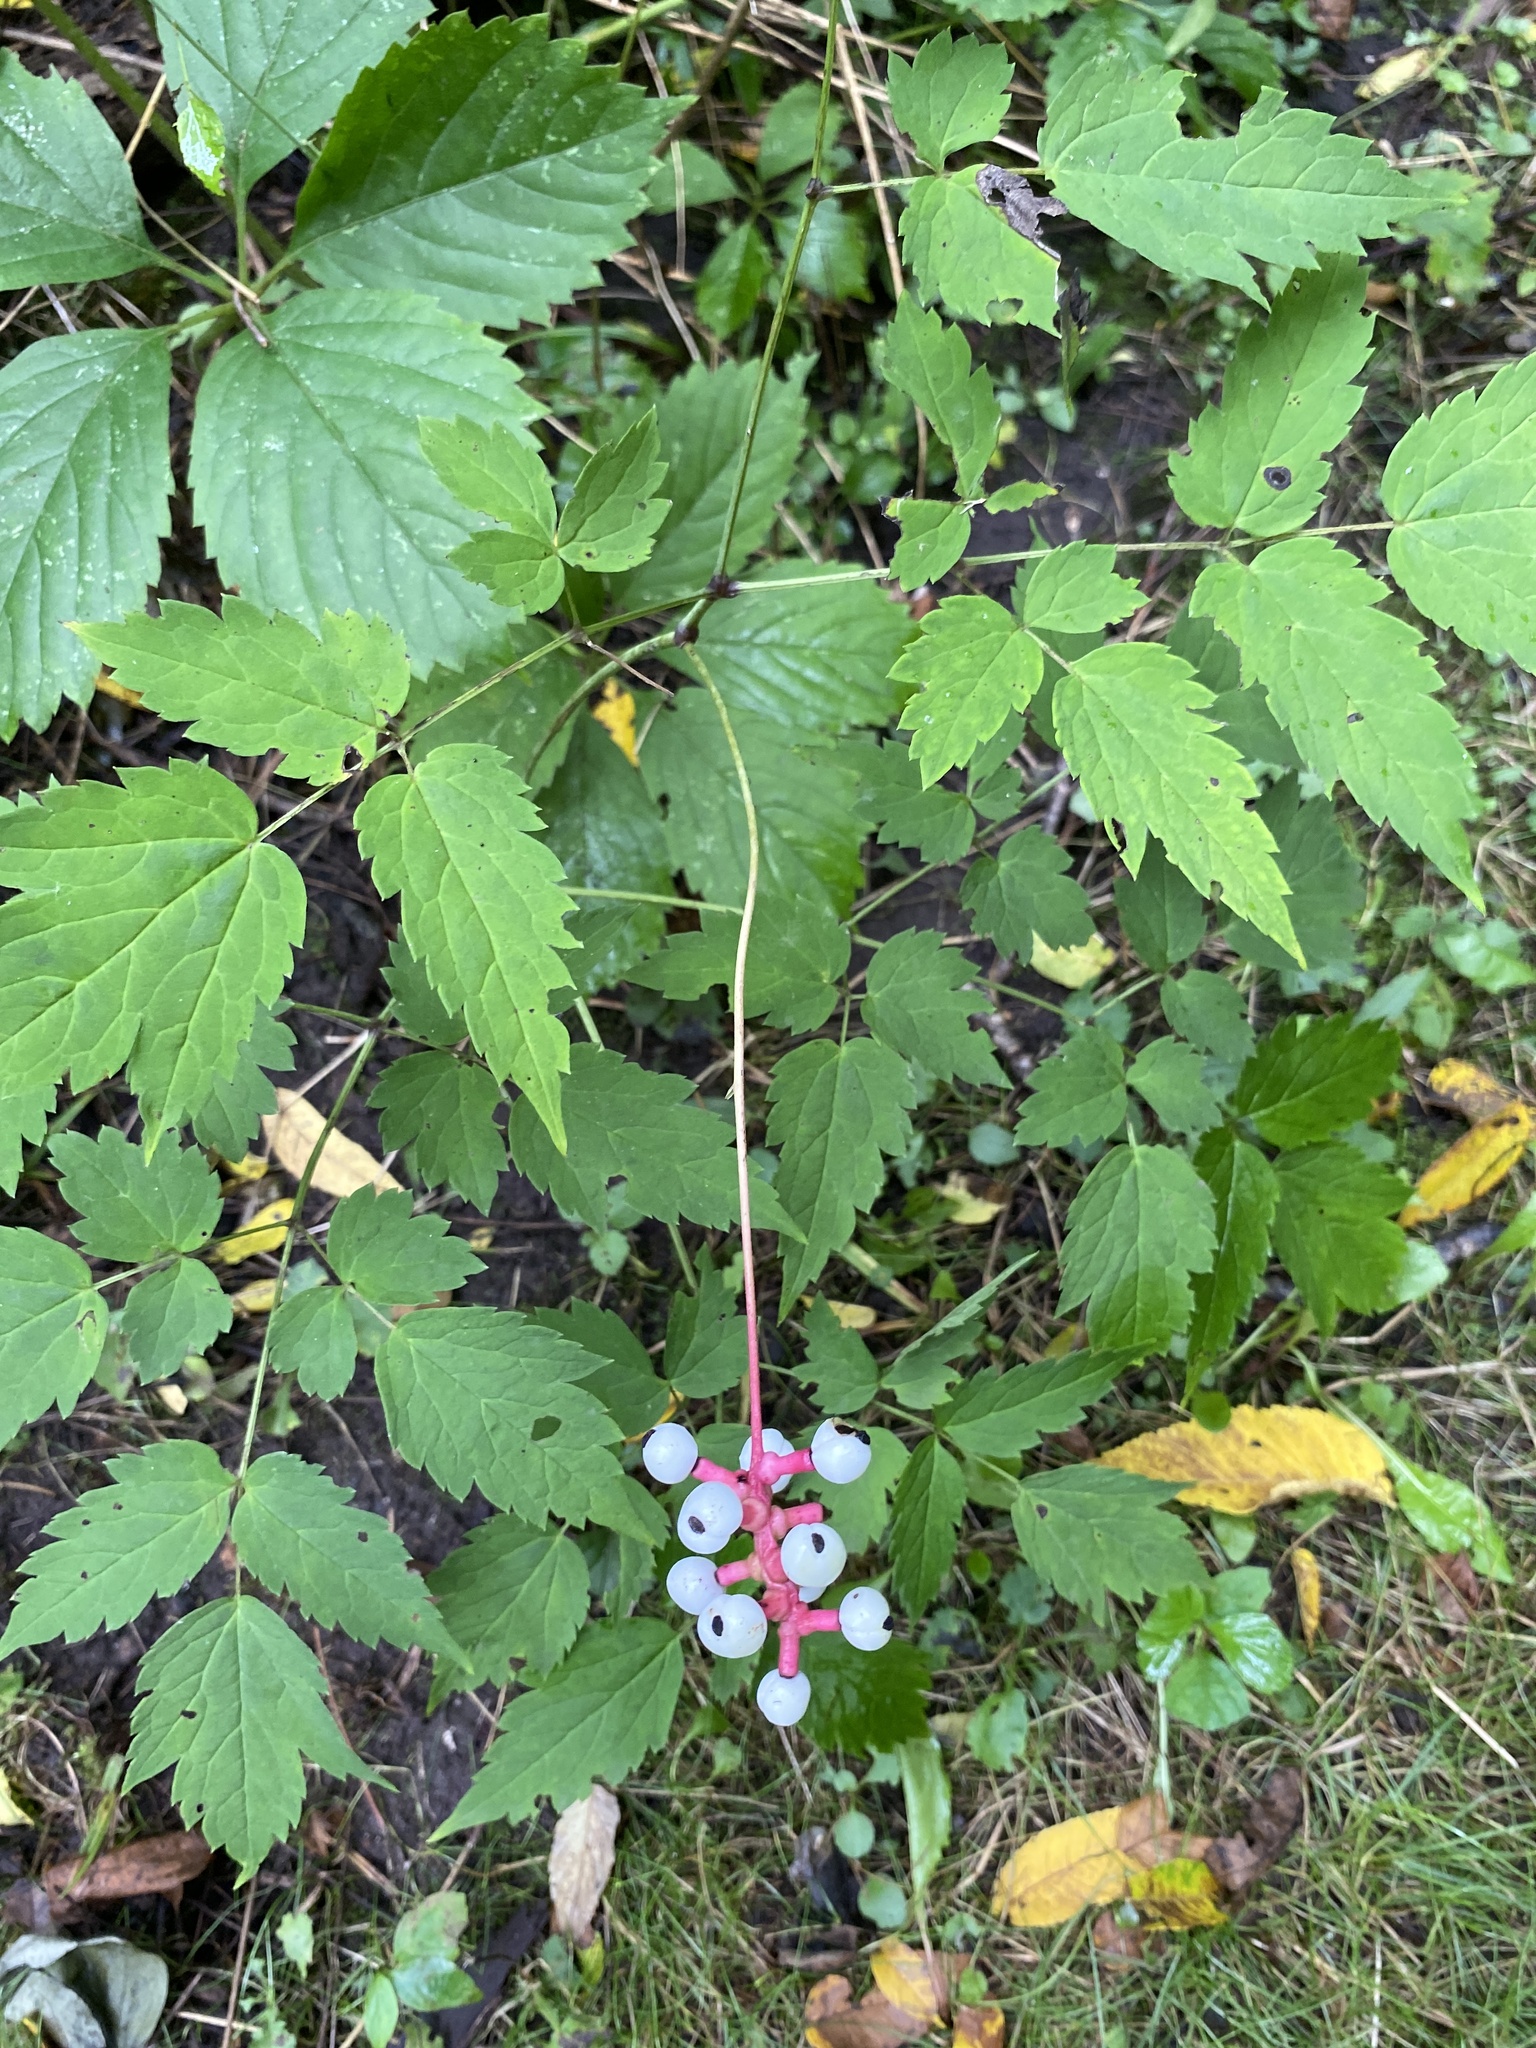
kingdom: Plantae
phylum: Tracheophyta
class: Magnoliopsida
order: Ranunculales
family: Ranunculaceae
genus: Actaea
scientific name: Actaea pachypoda
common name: Doll's-eyes
